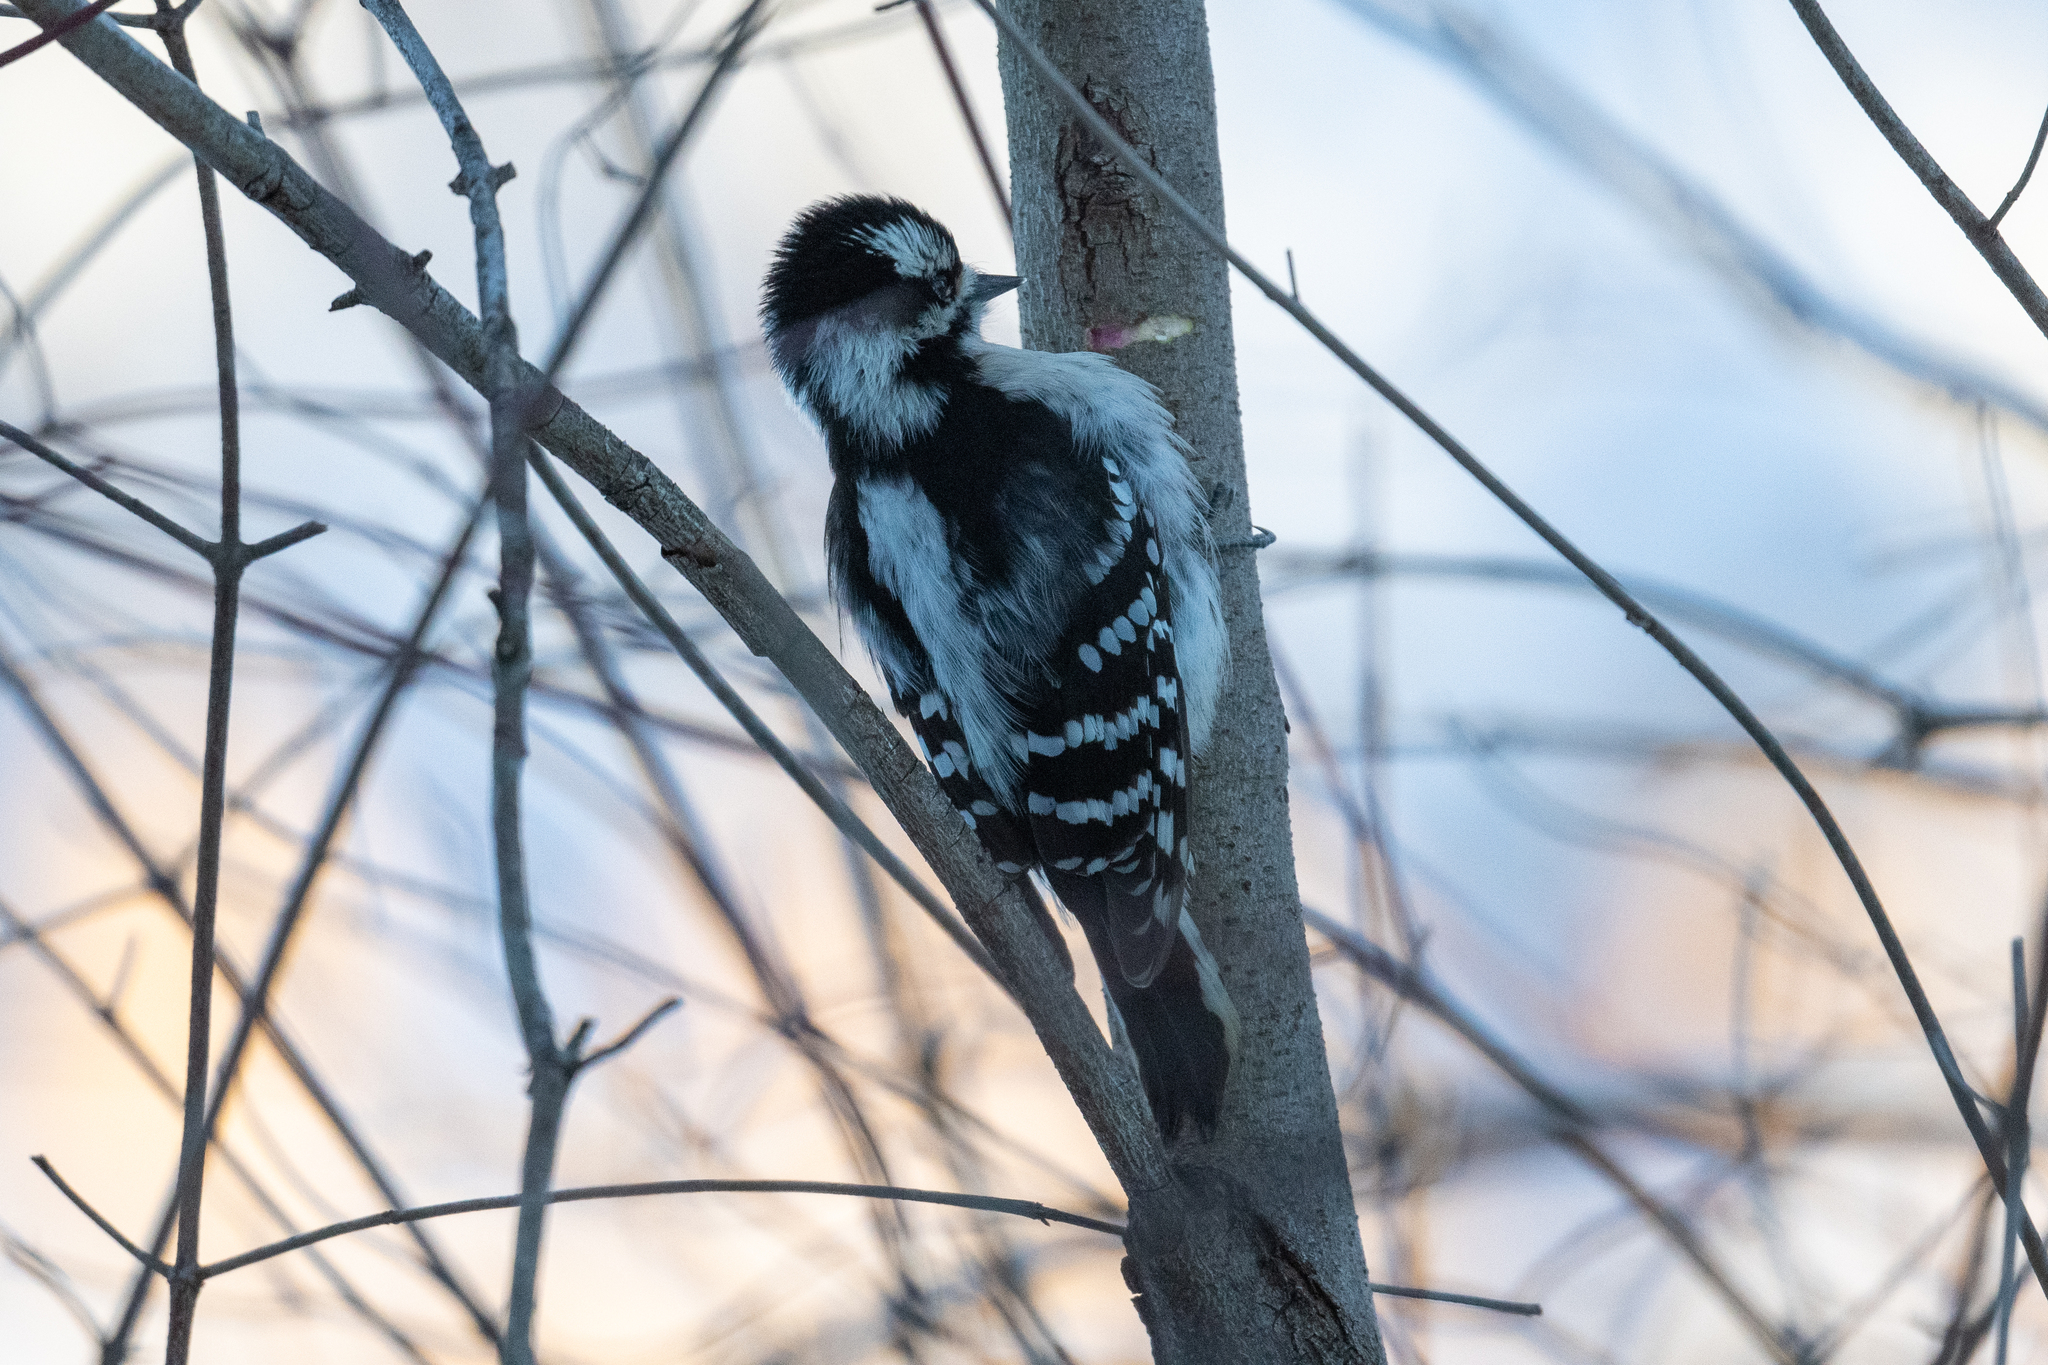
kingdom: Animalia
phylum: Chordata
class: Aves
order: Piciformes
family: Picidae
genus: Dryobates
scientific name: Dryobates pubescens
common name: Downy woodpecker
